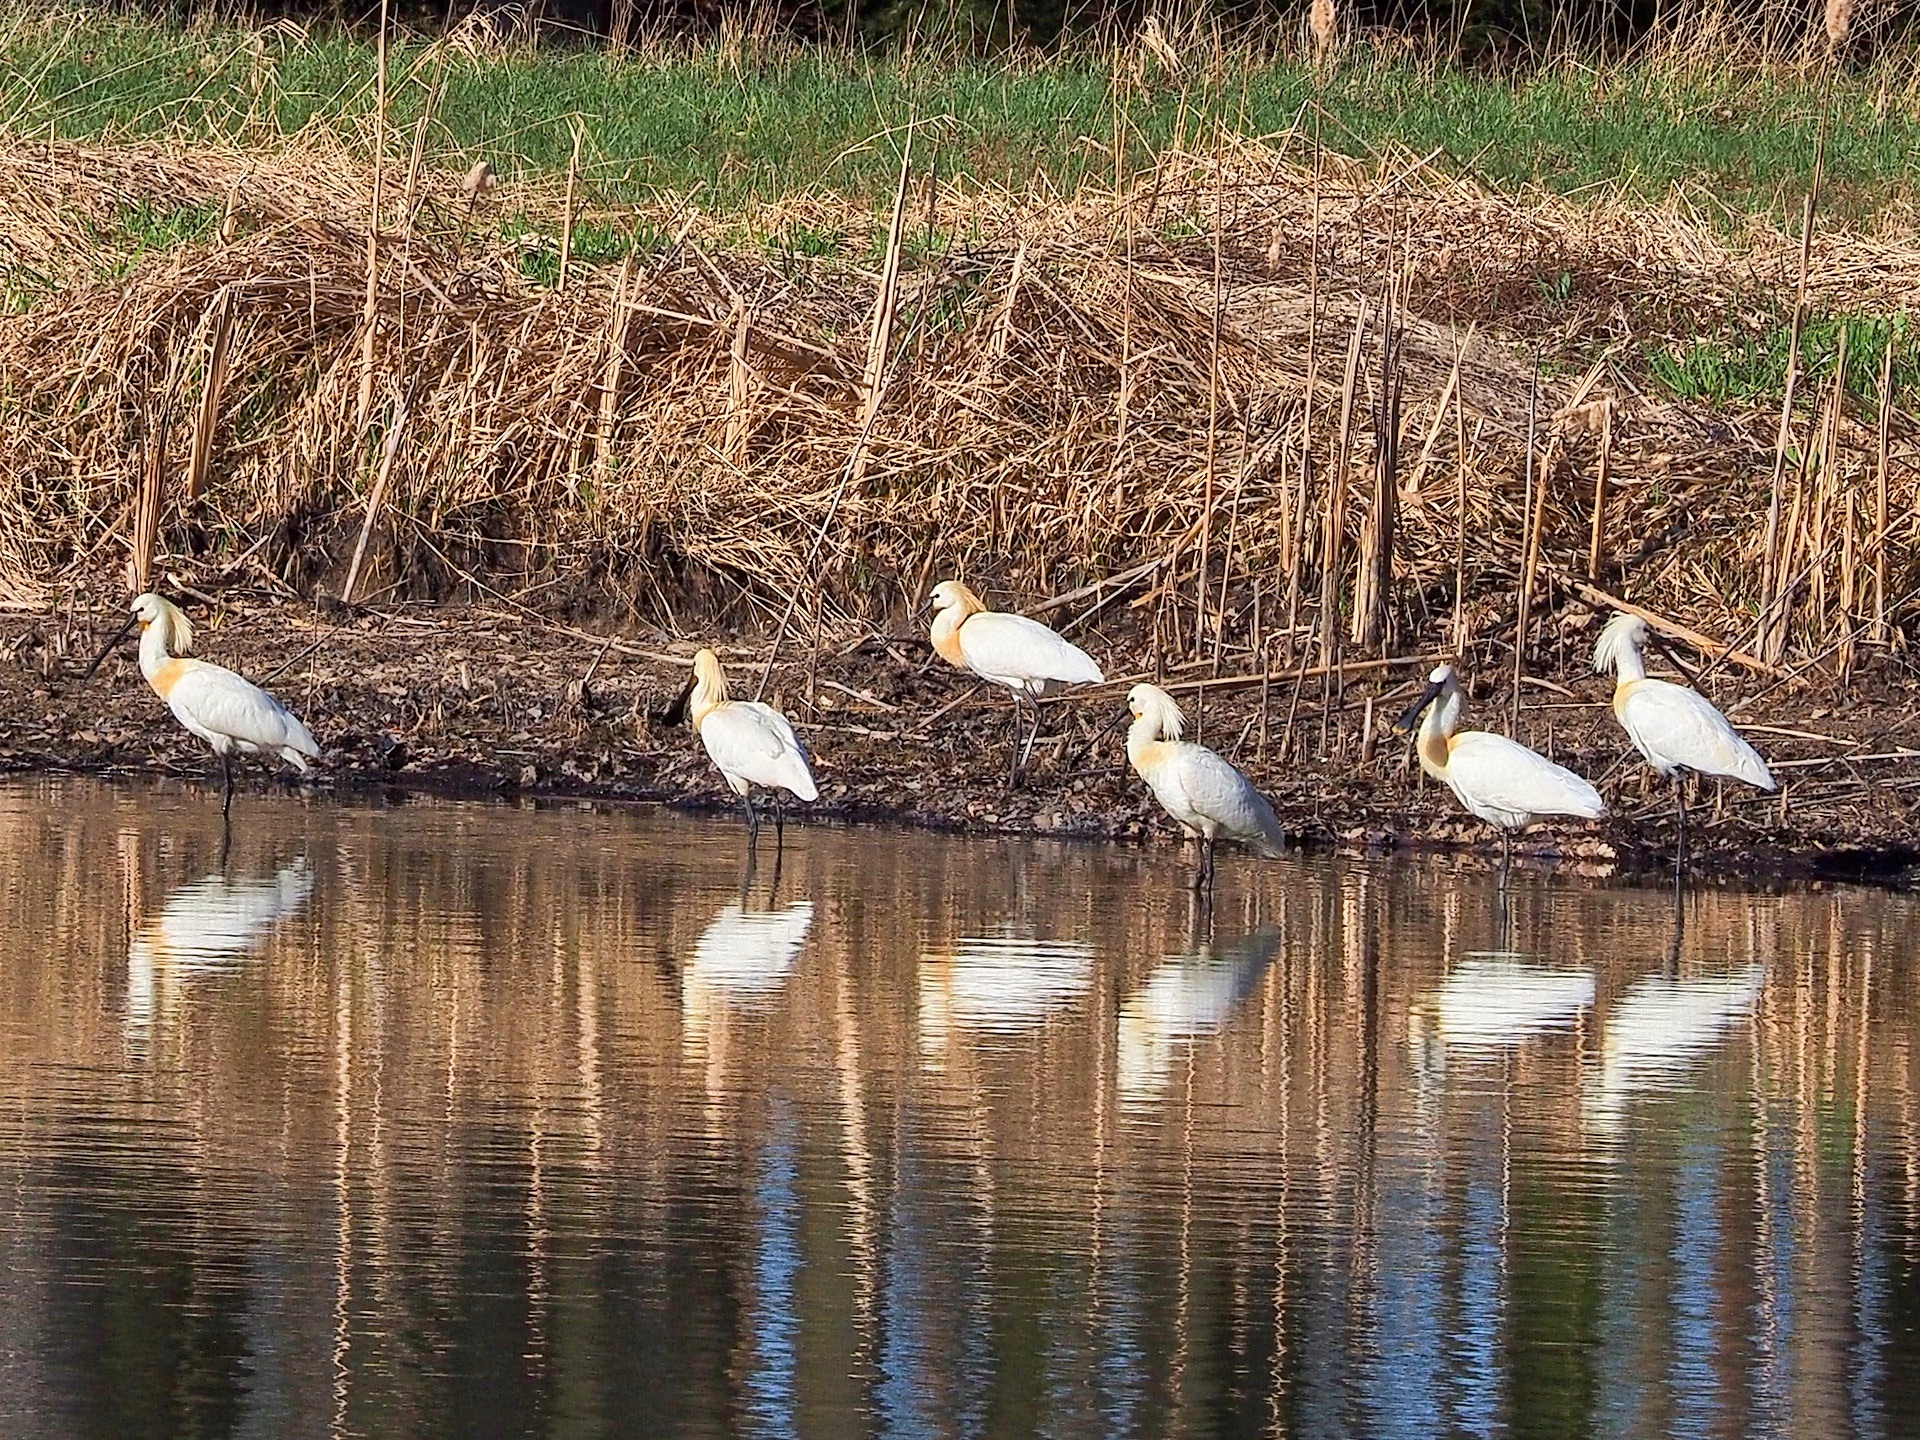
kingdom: Animalia
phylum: Chordata
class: Aves
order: Pelecaniformes
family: Threskiornithidae
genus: Platalea
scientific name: Platalea leucorodia
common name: Eurasian spoonbill
